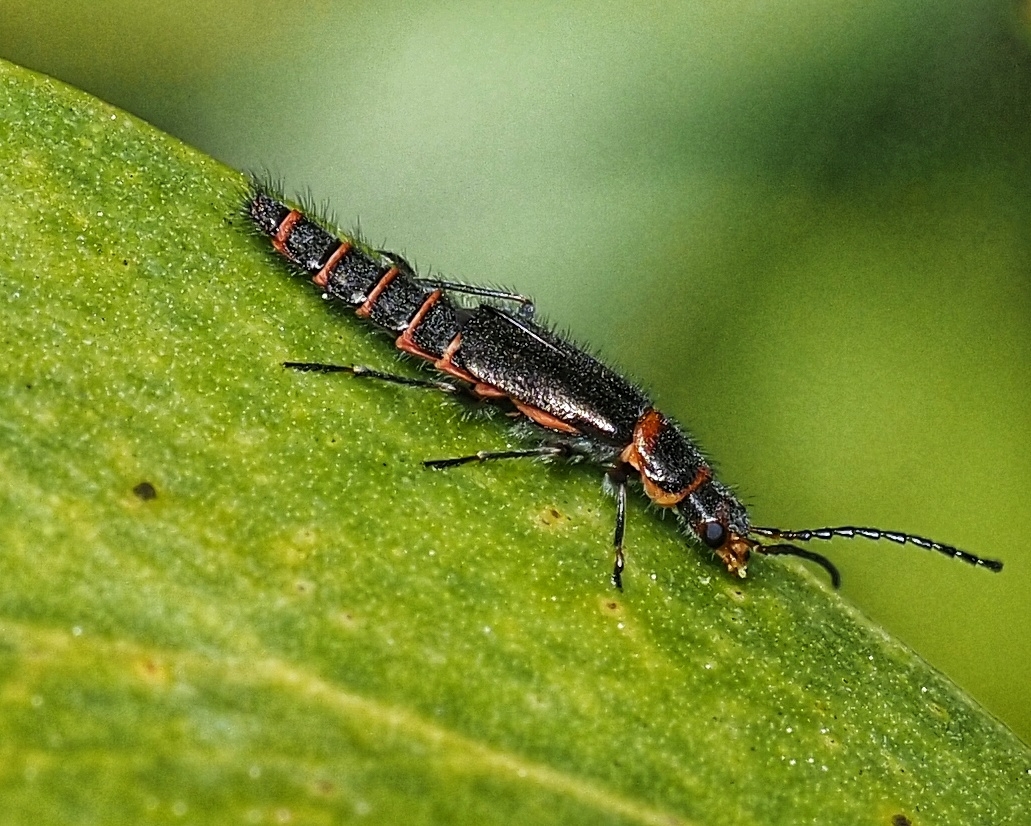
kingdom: Animalia
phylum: Arthropoda
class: Insecta
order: Coleoptera
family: Melyridae
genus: Carphurus
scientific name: Carphurus
